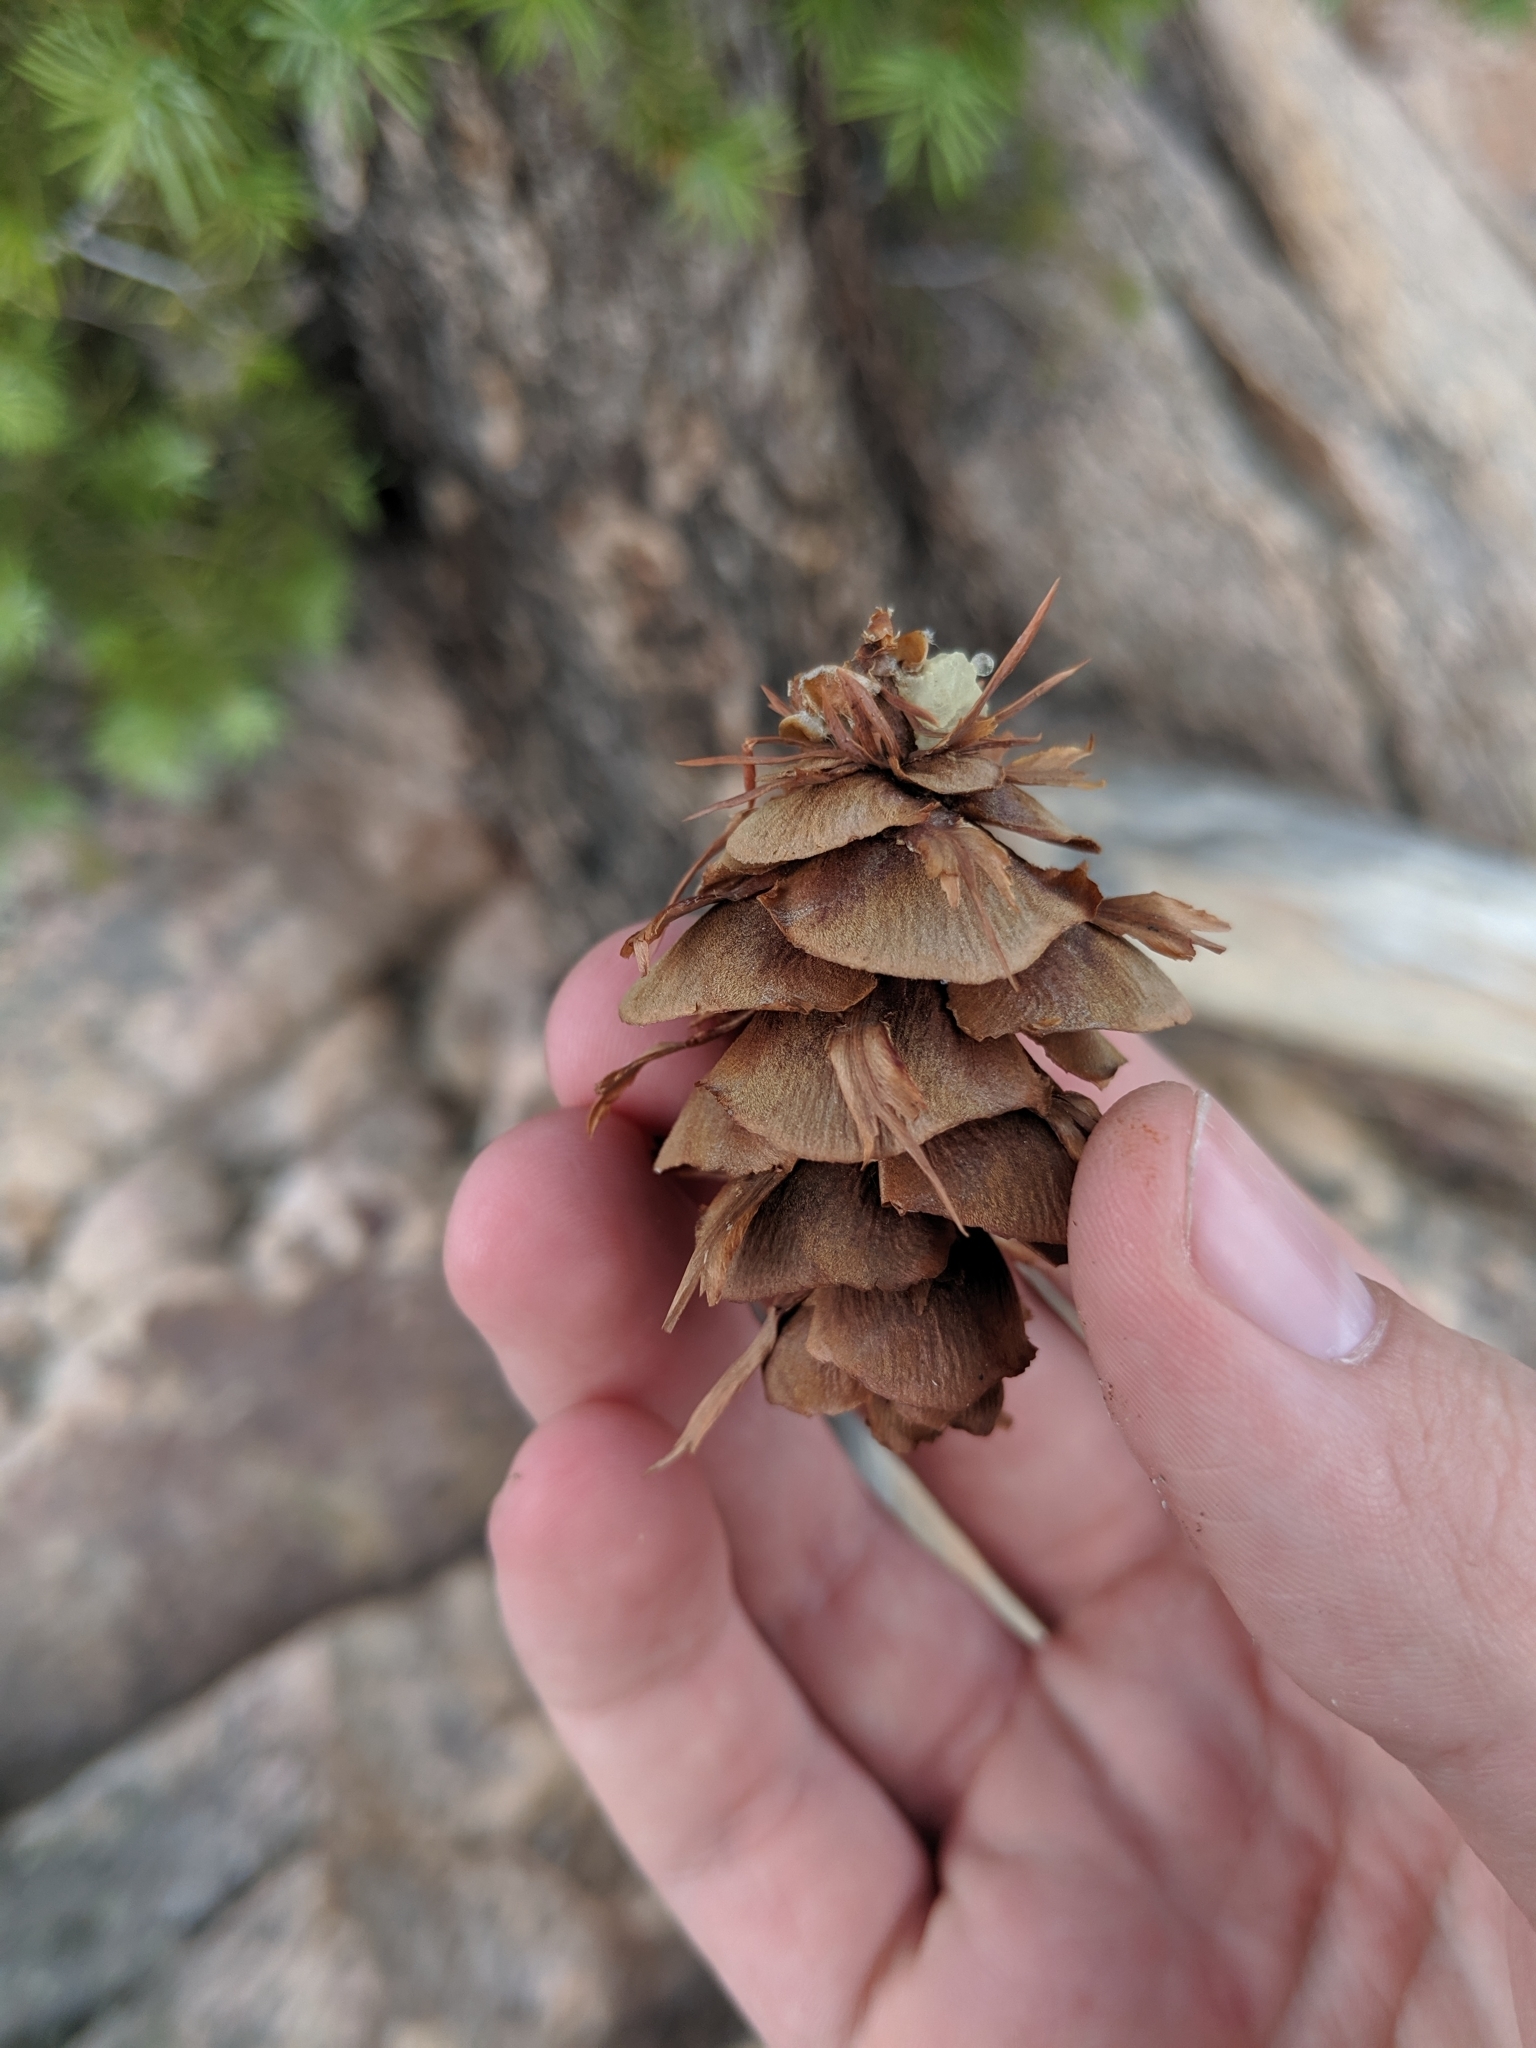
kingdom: Plantae
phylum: Tracheophyta
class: Pinopsida
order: Pinales
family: Pinaceae
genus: Pseudotsuga
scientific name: Pseudotsuga menziesii
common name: Douglas fir
